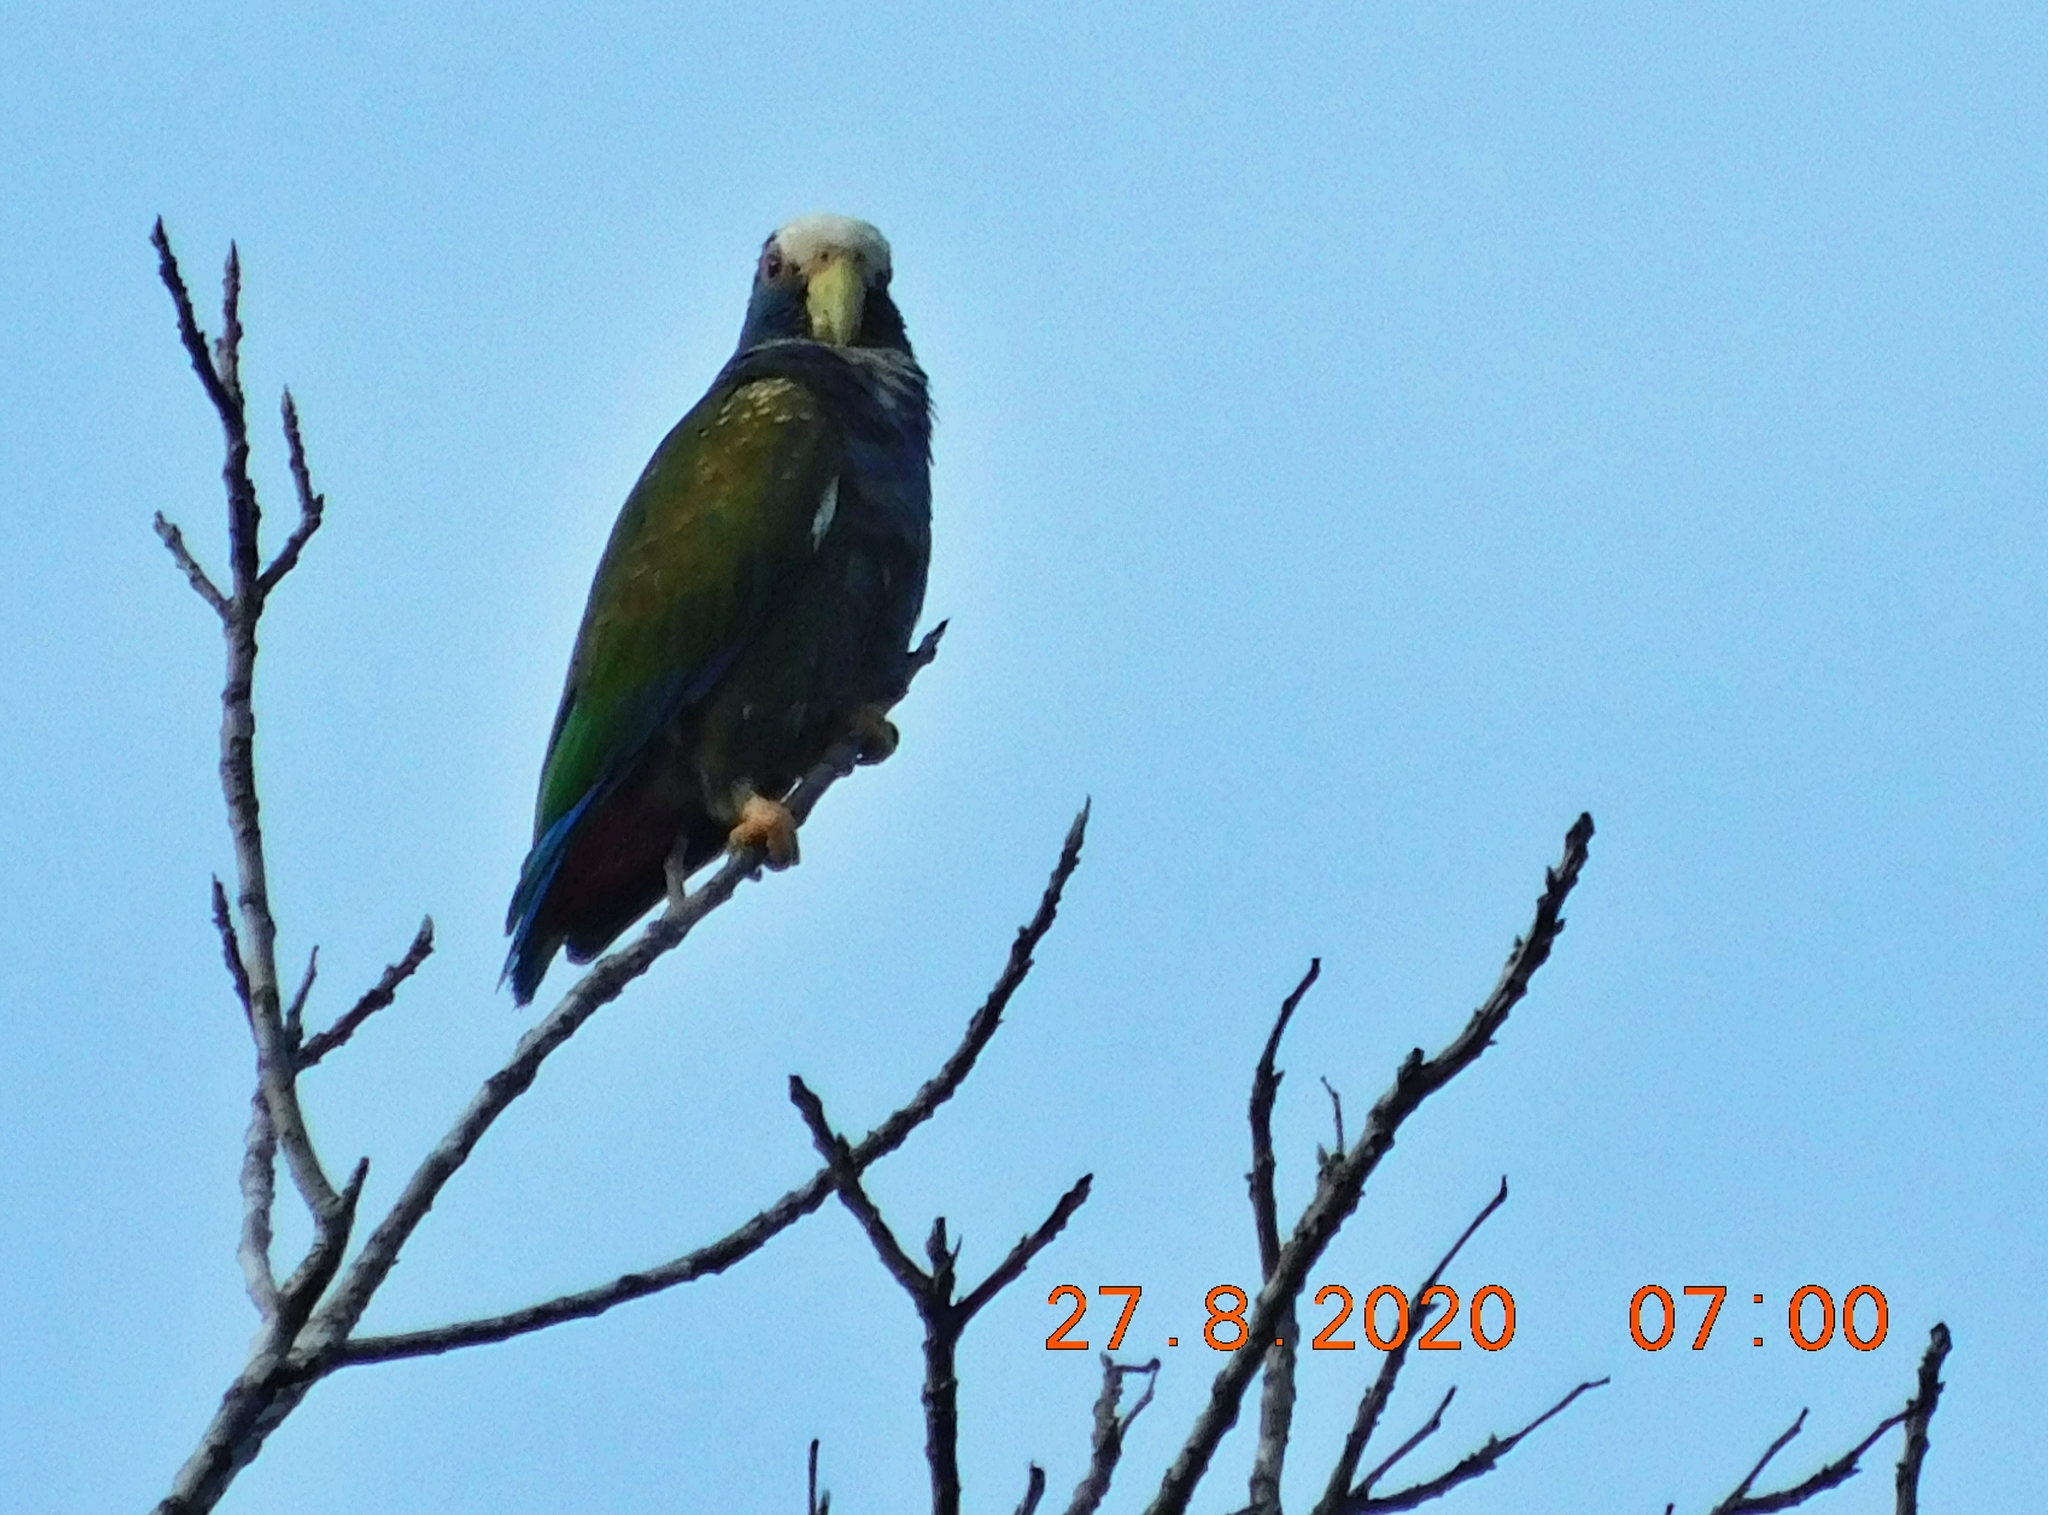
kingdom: Animalia
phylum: Chordata
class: Aves
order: Psittaciformes
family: Psittacidae
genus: Pionus
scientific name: Pionus senilis
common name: White-crowned parrot
